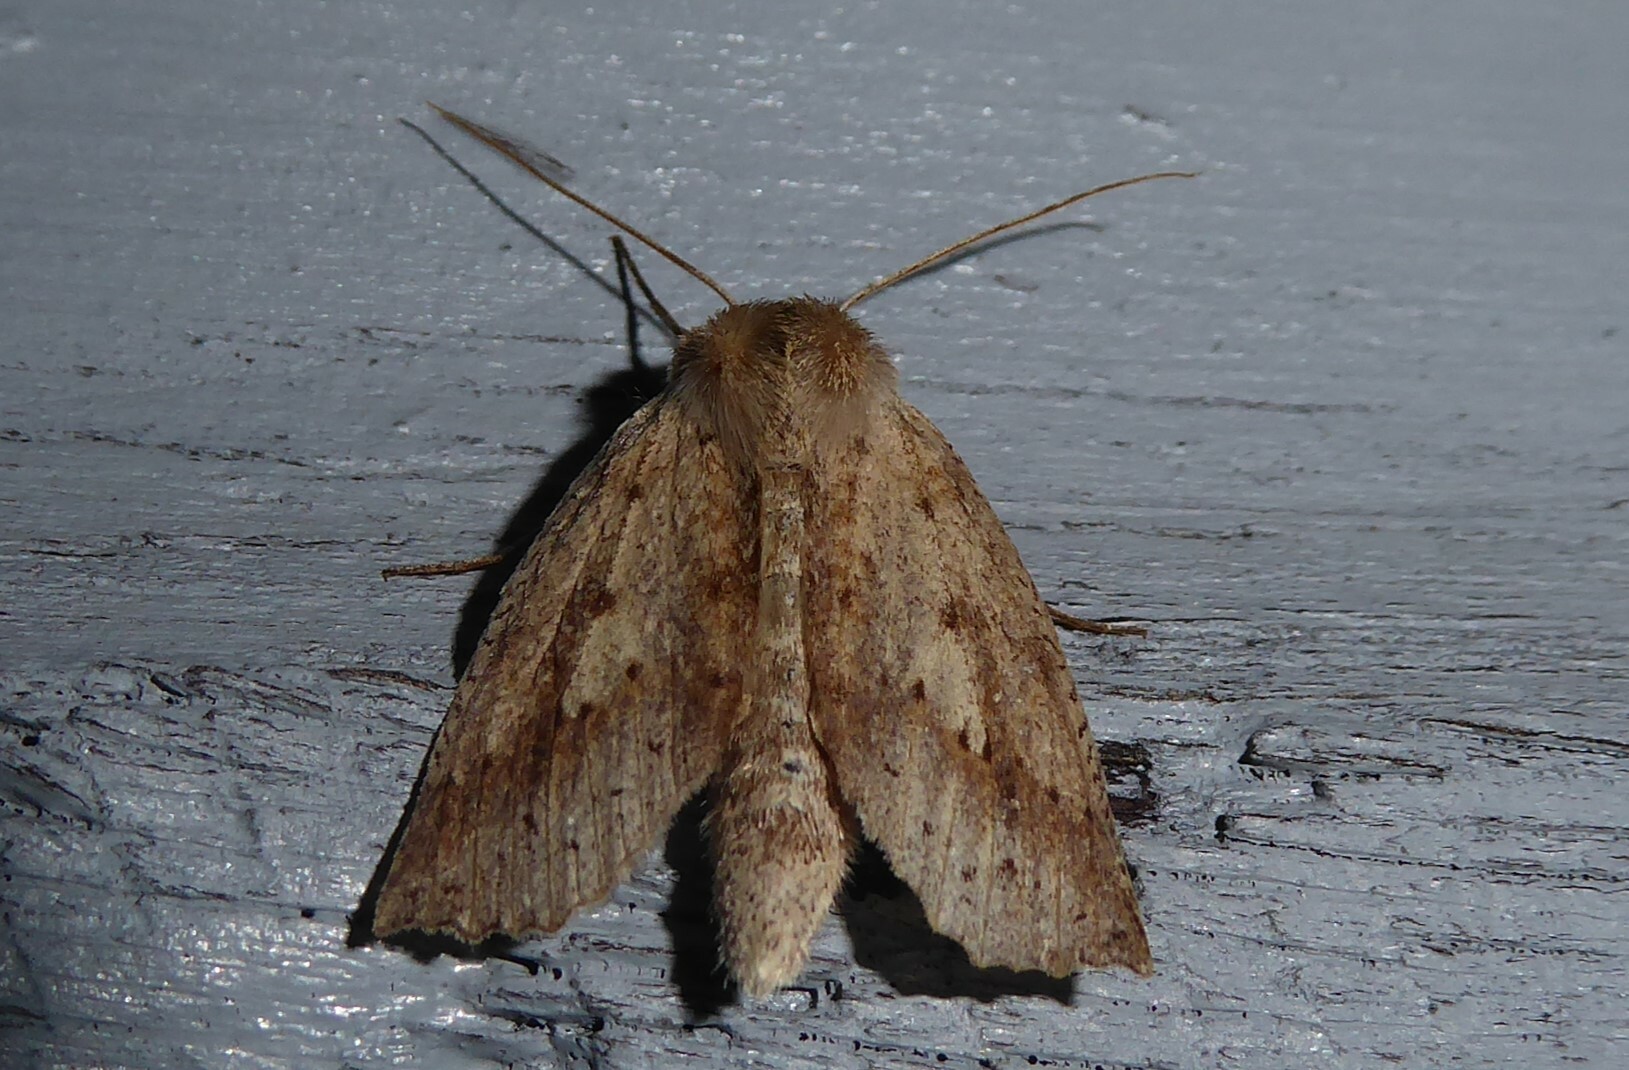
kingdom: Animalia
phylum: Arthropoda
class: Insecta
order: Lepidoptera
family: Geometridae
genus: Declana
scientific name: Declana leptomera
